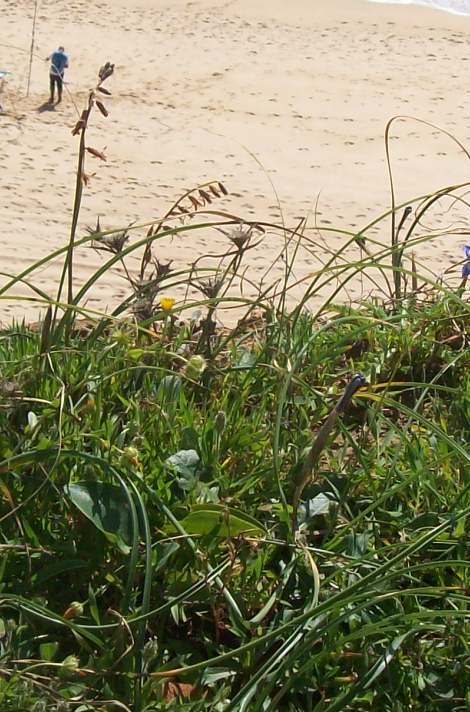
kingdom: Plantae
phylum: Tracheophyta
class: Liliopsida
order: Asparagales
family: Asparagaceae
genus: Dipcadi
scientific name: Dipcadi serotinum
